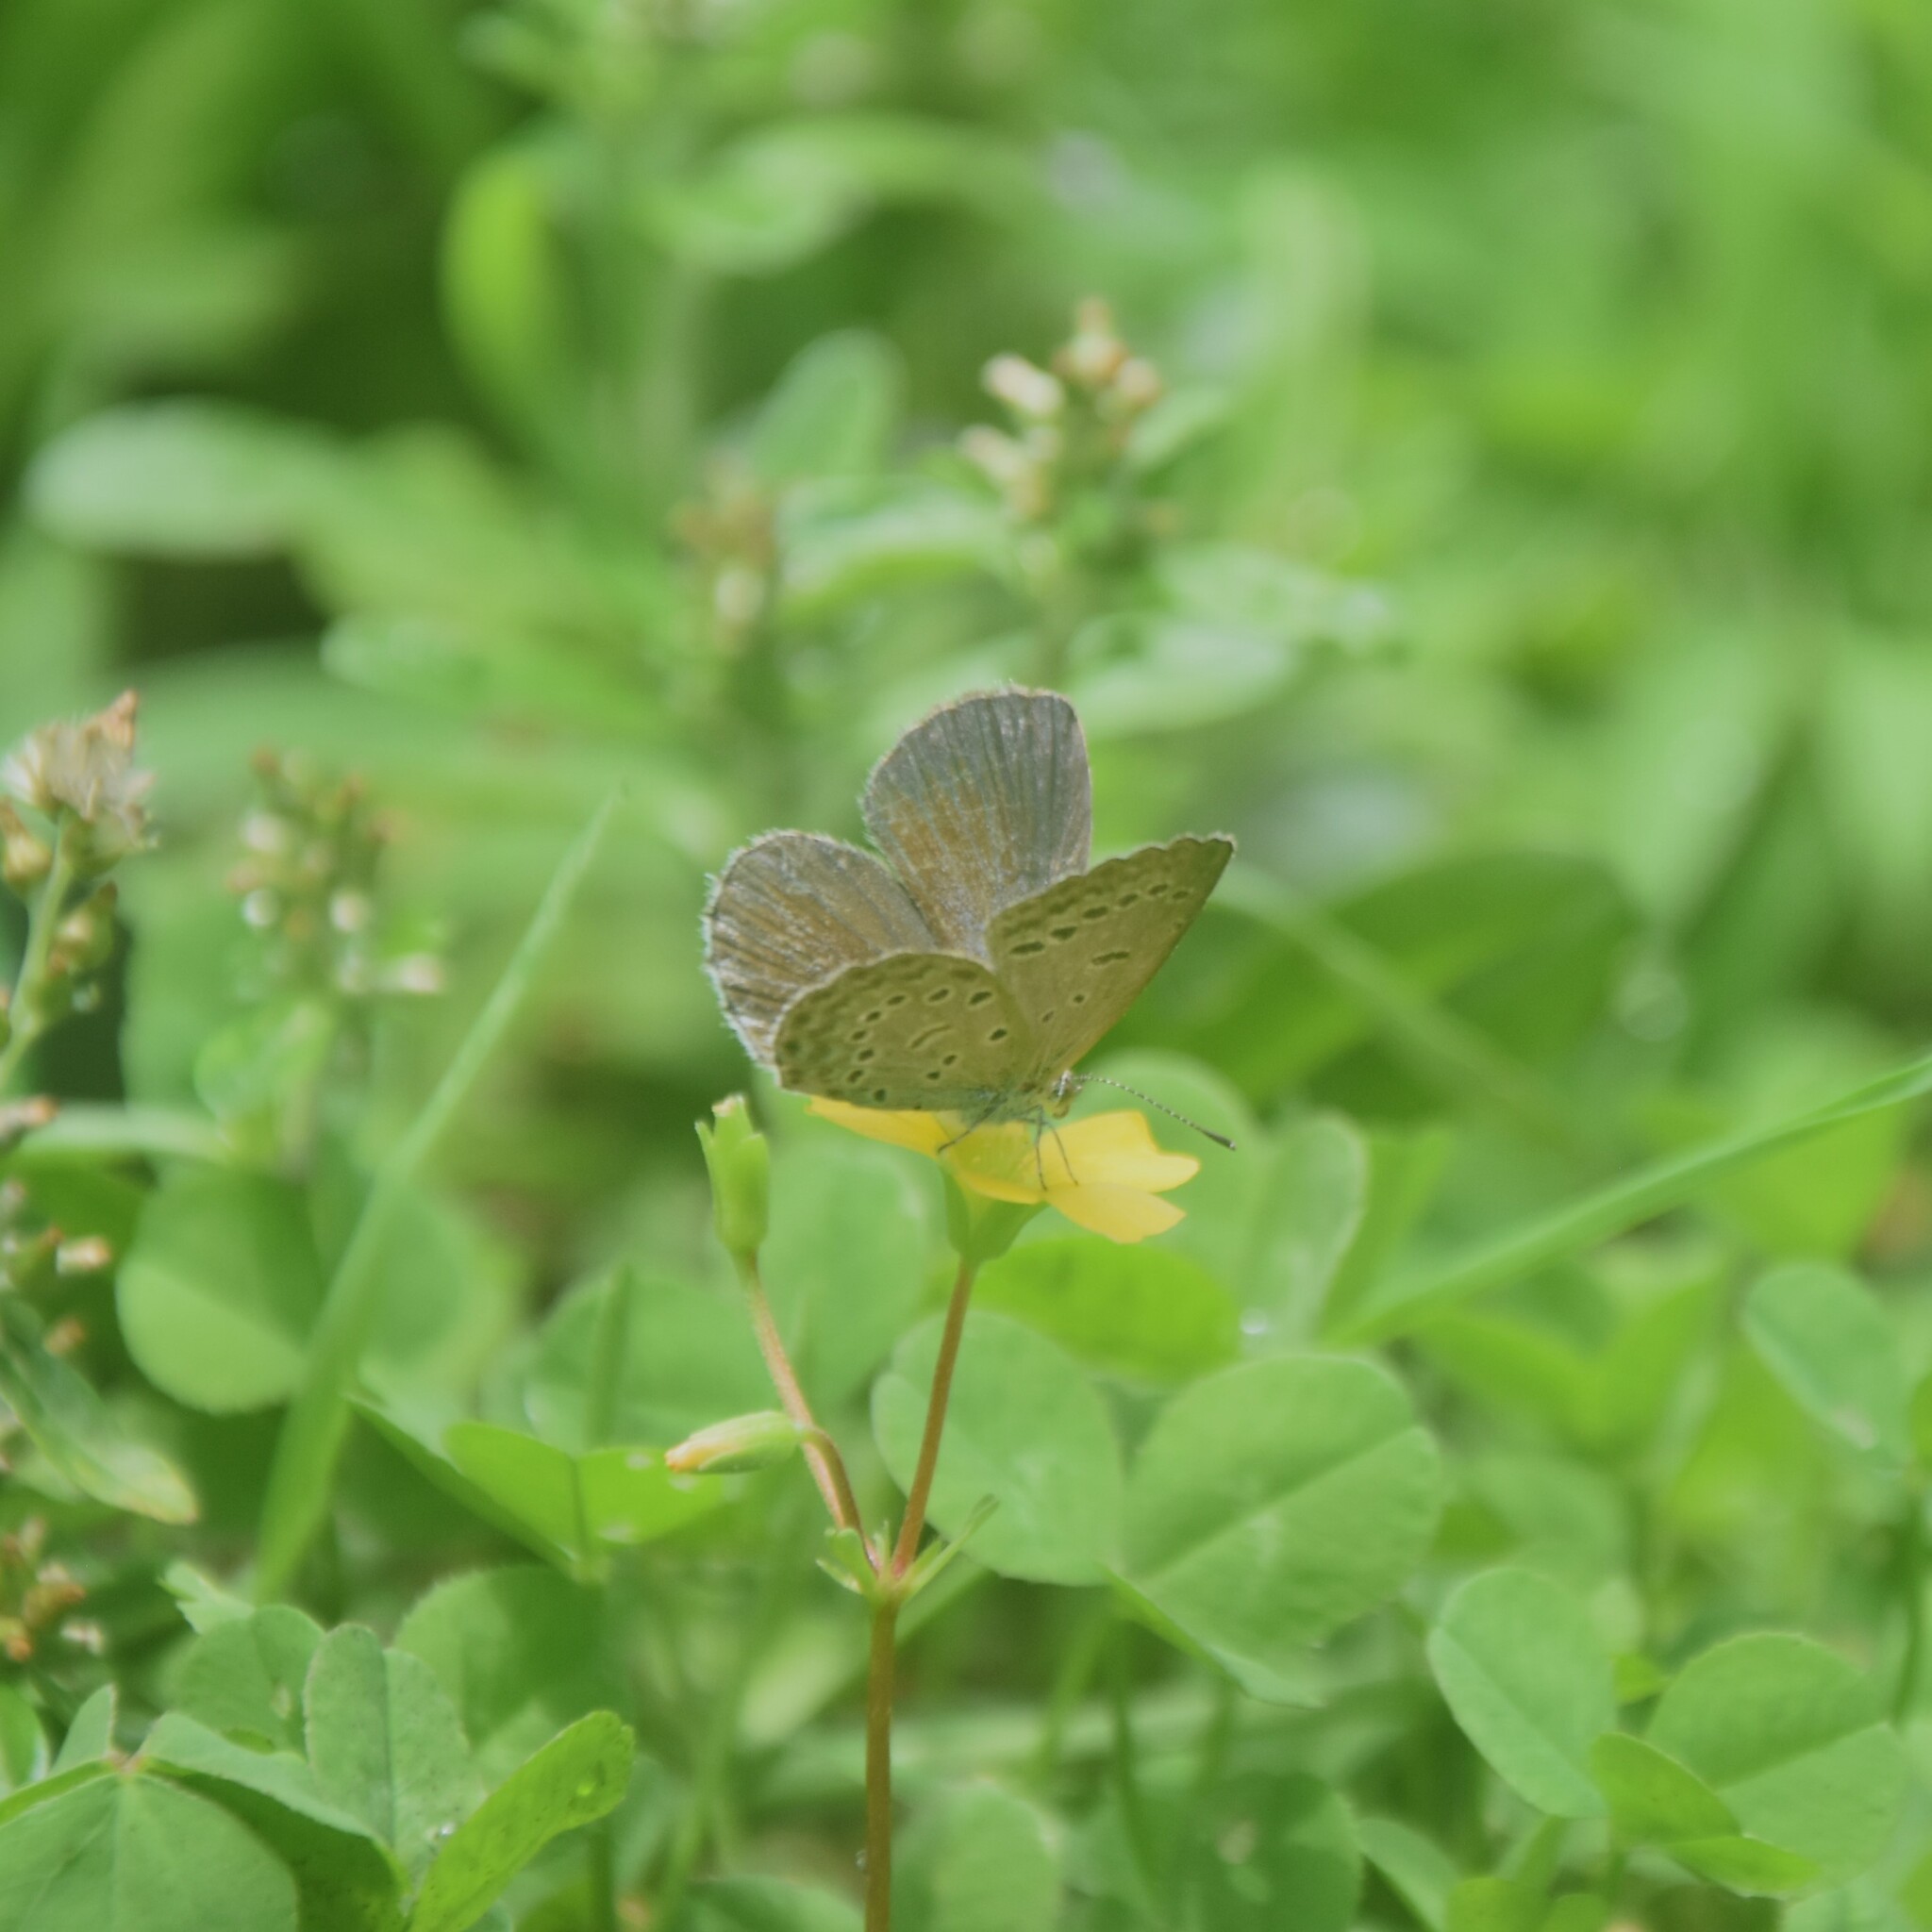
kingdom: Animalia
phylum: Arthropoda
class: Insecta
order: Lepidoptera
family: Lycaenidae
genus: Zizeeria
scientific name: Zizeeria karsandra
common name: Dark grass blue
